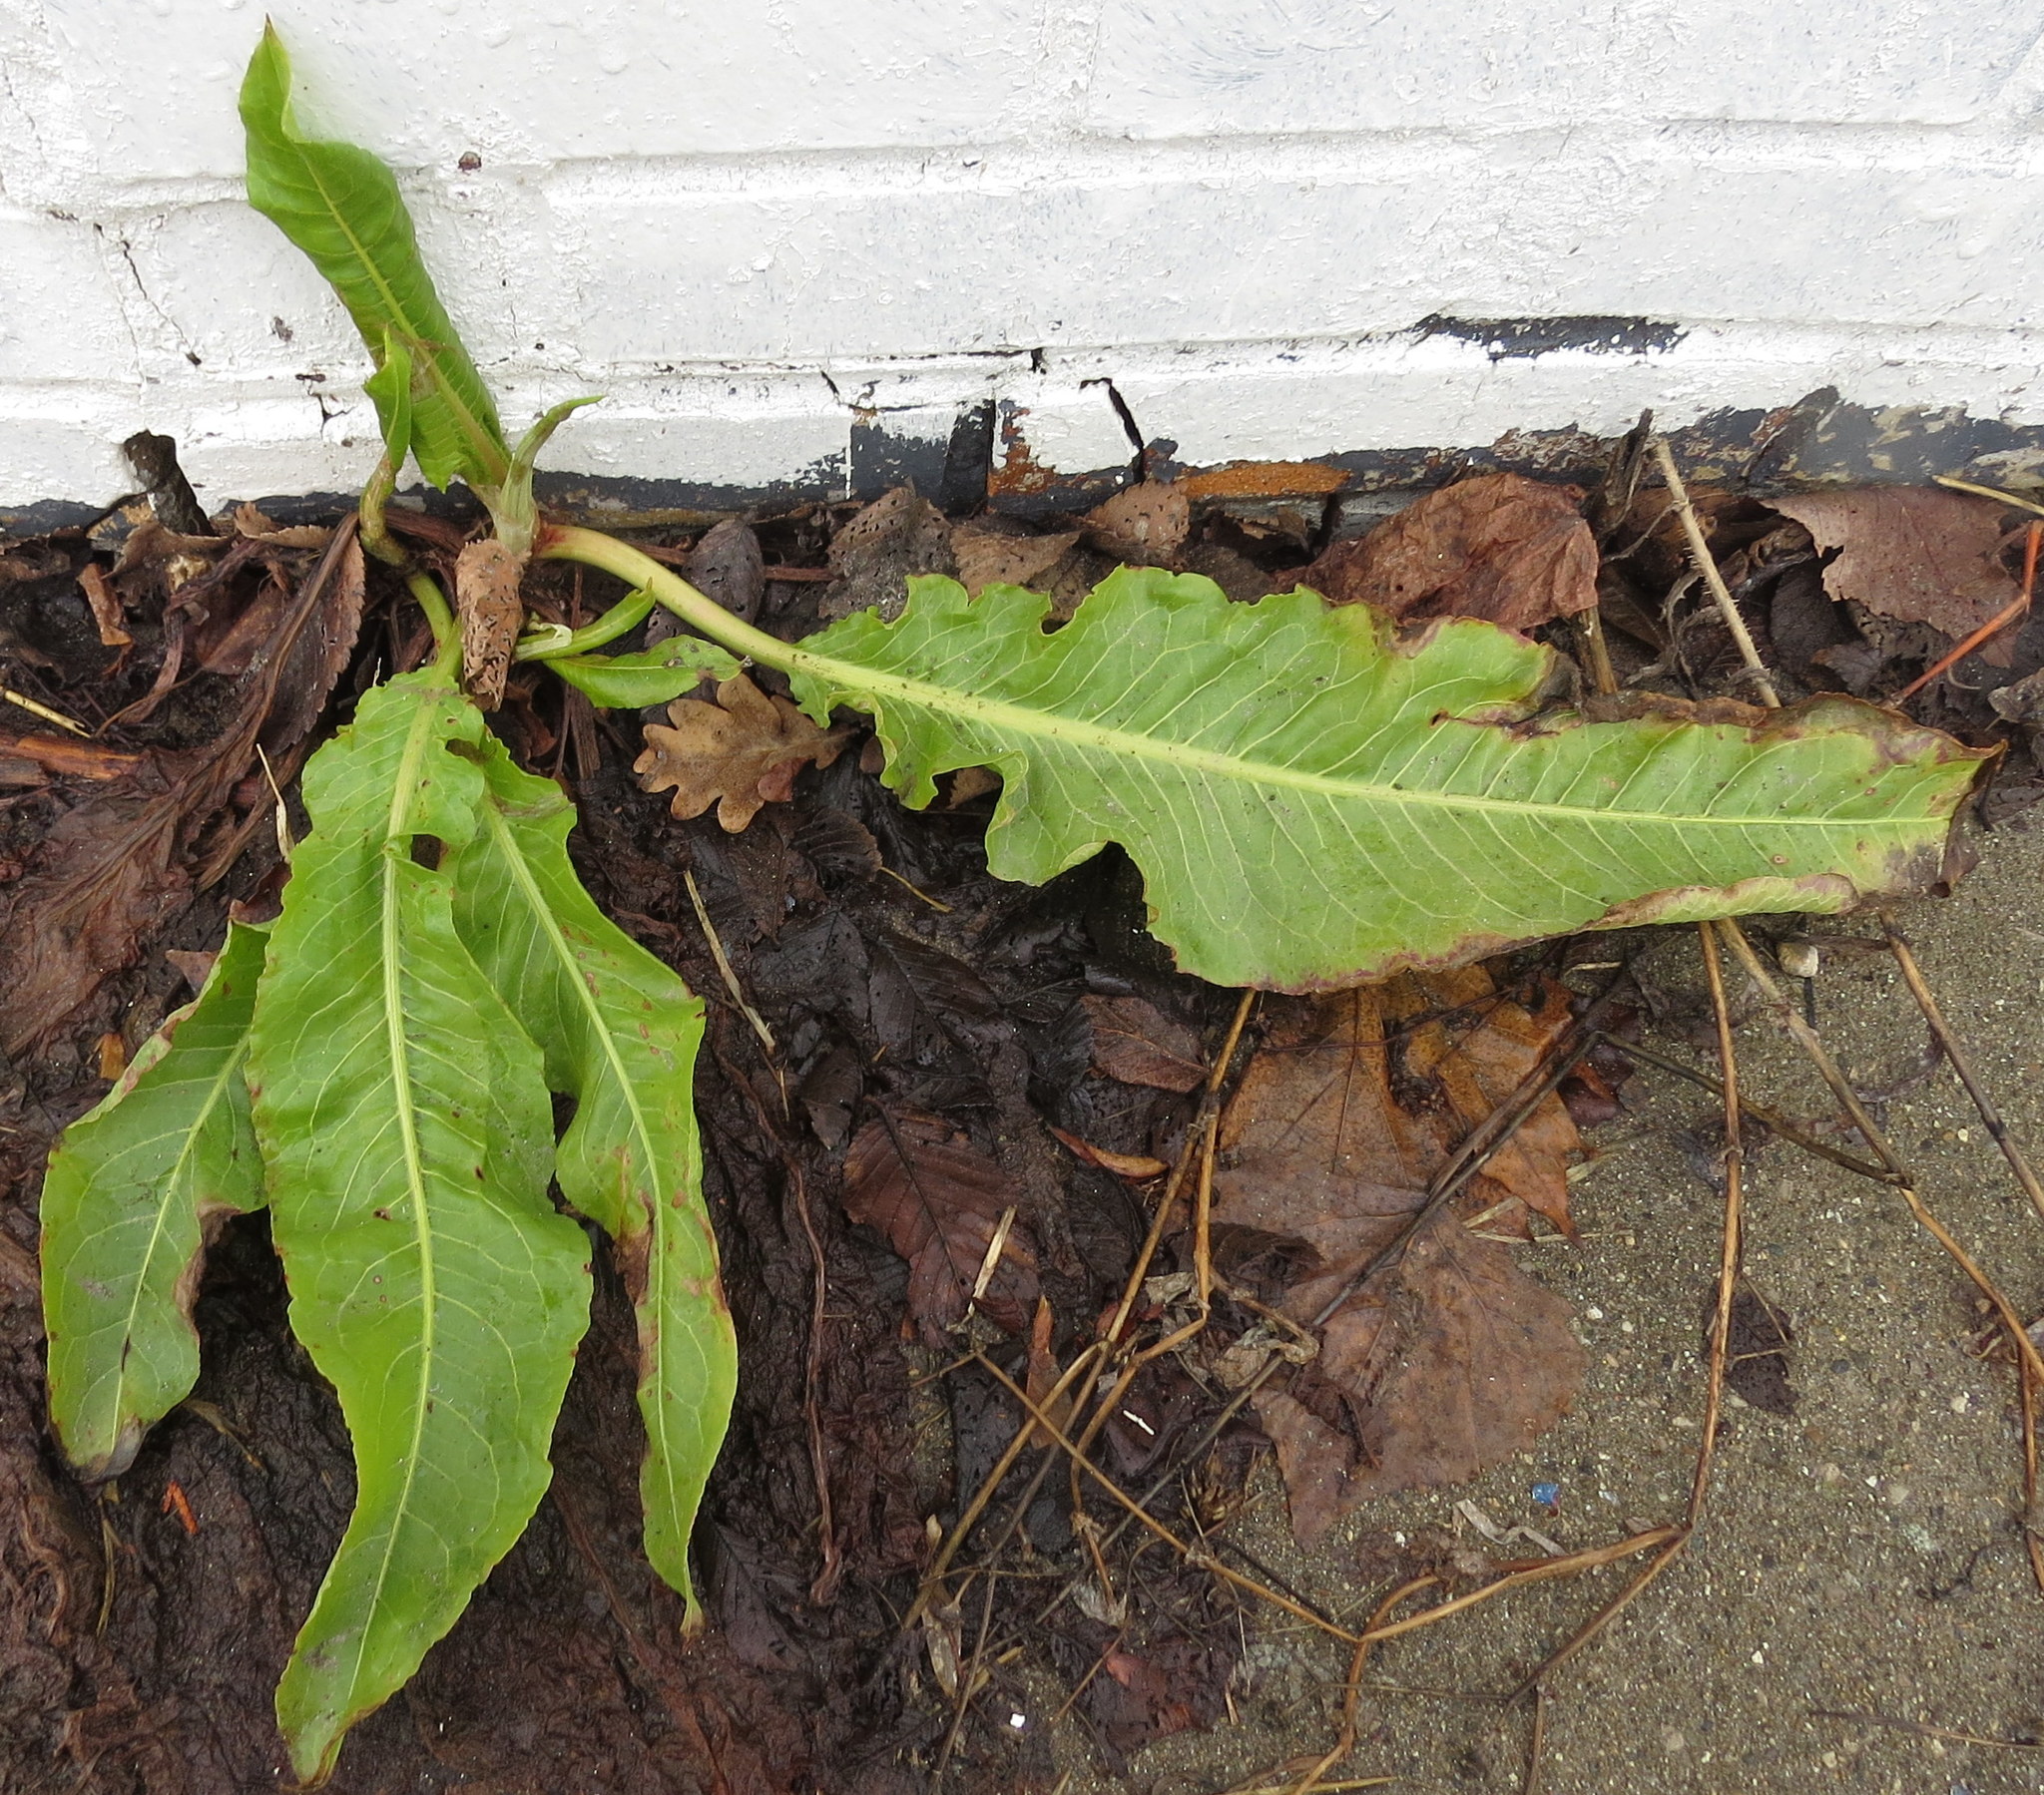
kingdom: Plantae
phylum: Tracheophyta
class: Magnoliopsida
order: Caryophyllales
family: Polygonaceae
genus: Rumex
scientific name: Rumex crispus
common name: Curled dock
